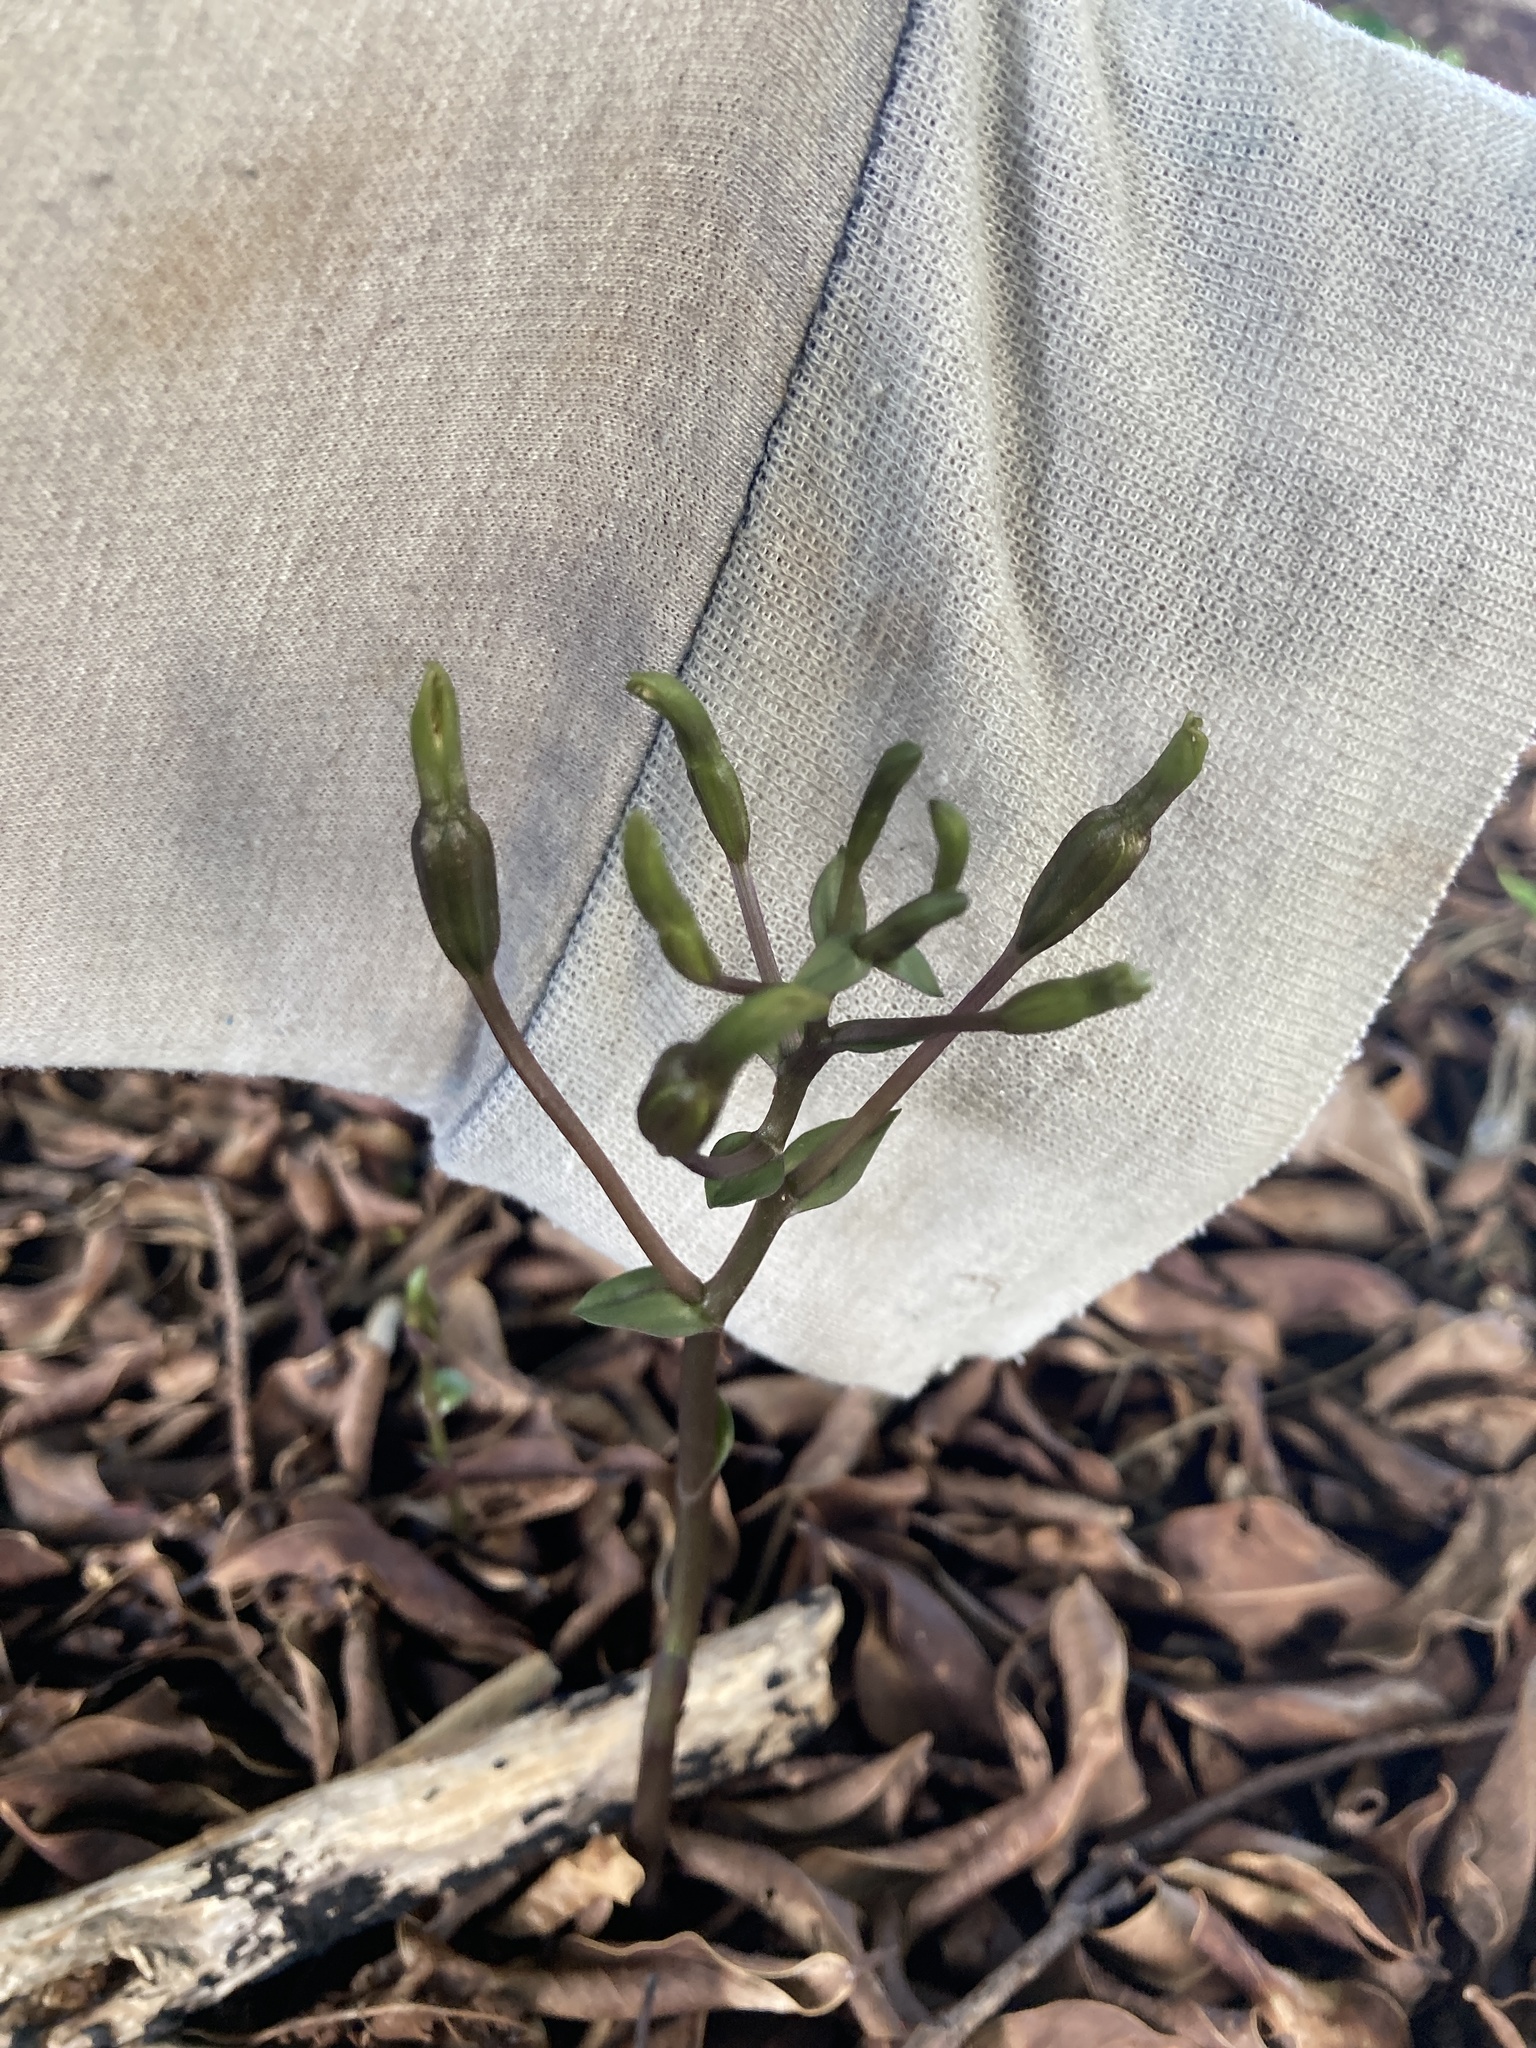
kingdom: Plantae
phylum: Tracheophyta
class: Liliopsida
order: Asparagales
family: Orchidaceae
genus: Triphora
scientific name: Triphora gentianoides
